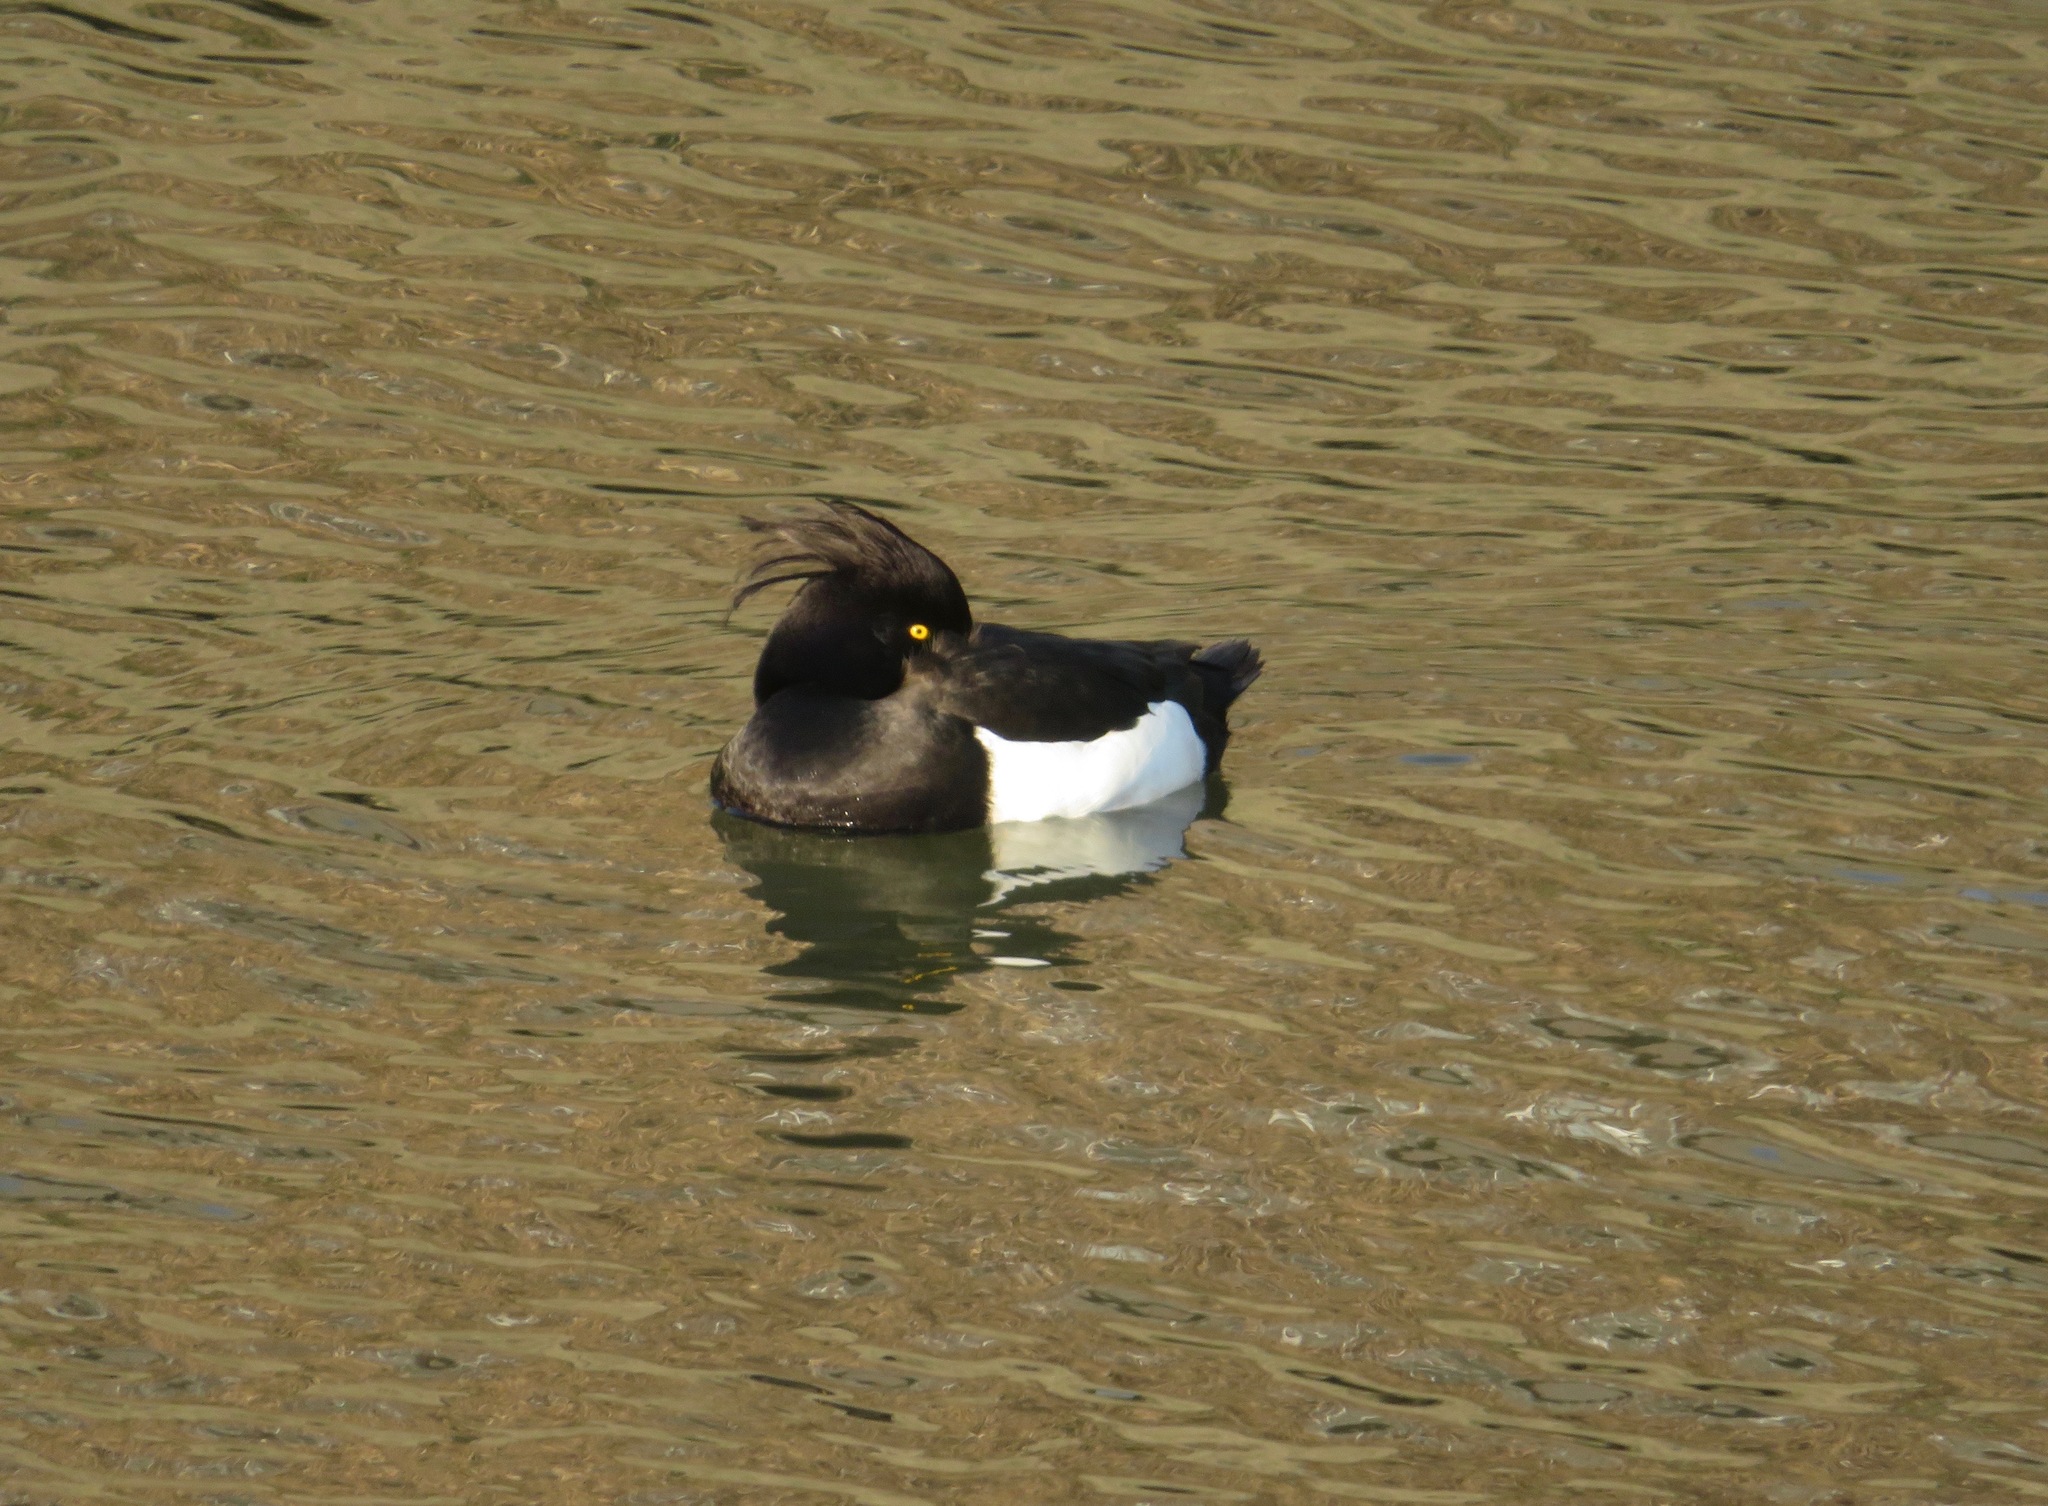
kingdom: Animalia
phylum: Chordata
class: Aves
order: Anseriformes
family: Anatidae
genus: Aythya
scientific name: Aythya fuligula
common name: Tufted duck
